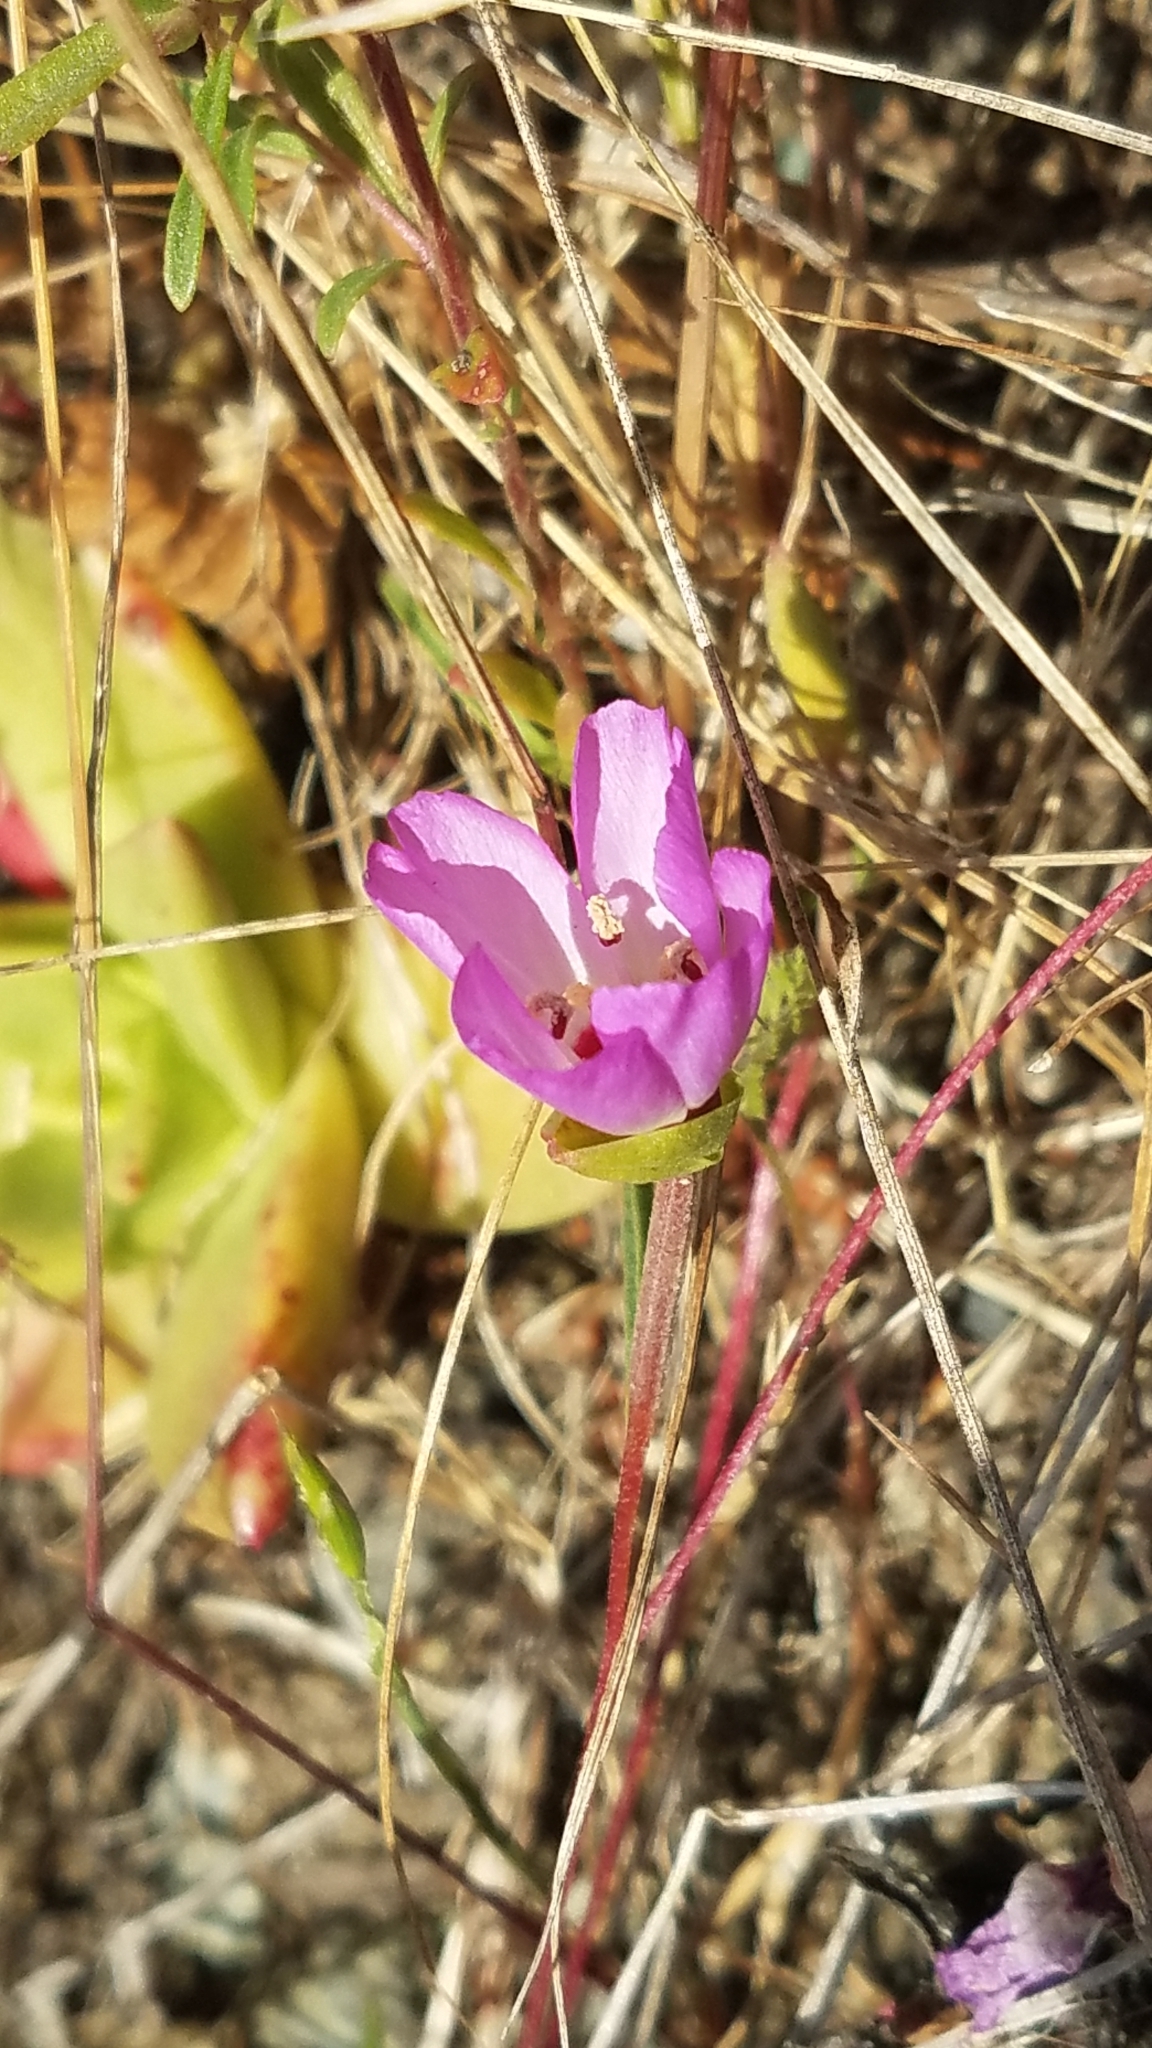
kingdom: Plantae
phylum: Tracheophyta
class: Magnoliopsida
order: Myrtales
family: Onagraceae
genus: Clarkia
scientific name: Clarkia franciscana
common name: Presidio clarkia
